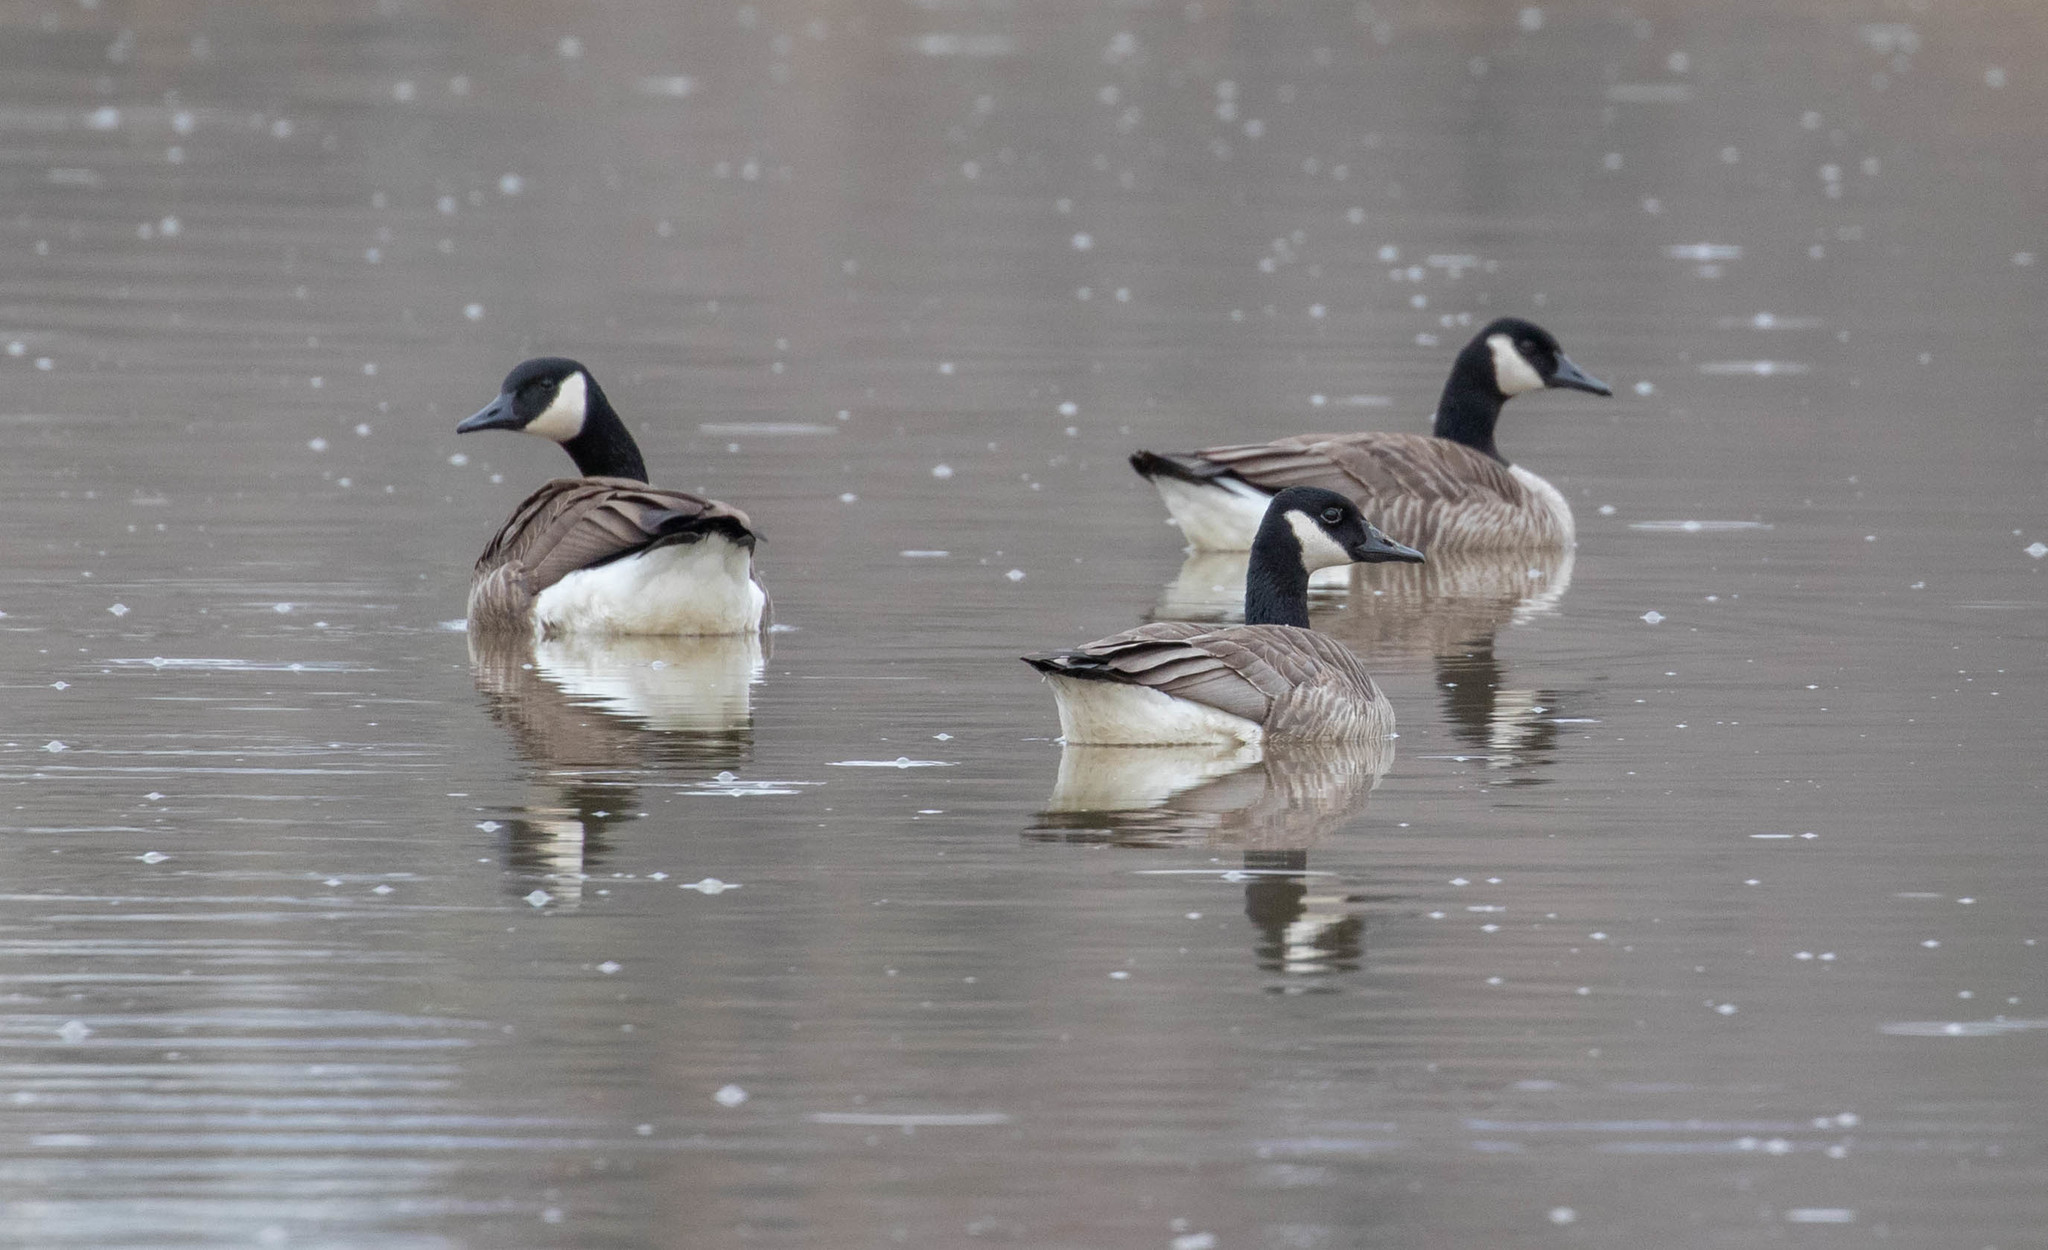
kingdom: Animalia
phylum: Chordata
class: Aves
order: Anseriformes
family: Anatidae
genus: Branta
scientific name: Branta canadensis
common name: Canada goose
